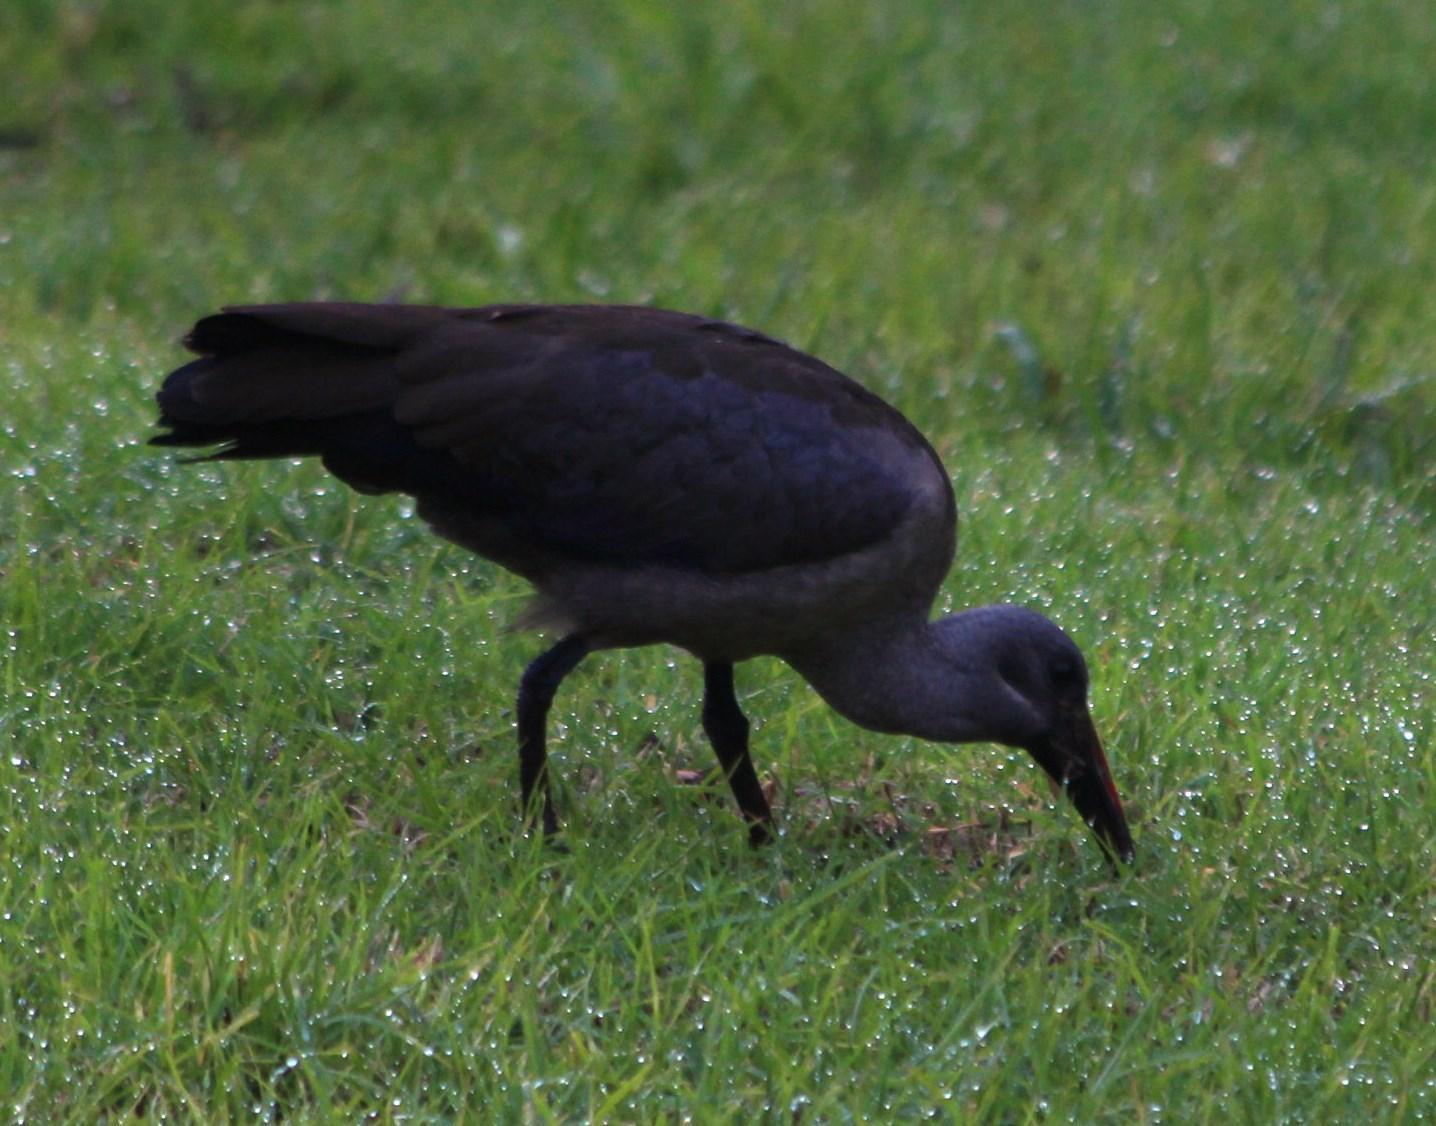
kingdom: Animalia
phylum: Chordata
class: Aves
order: Pelecaniformes
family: Threskiornithidae
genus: Bostrychia
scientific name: Bostrychia hagedash
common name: Hadada ibis
